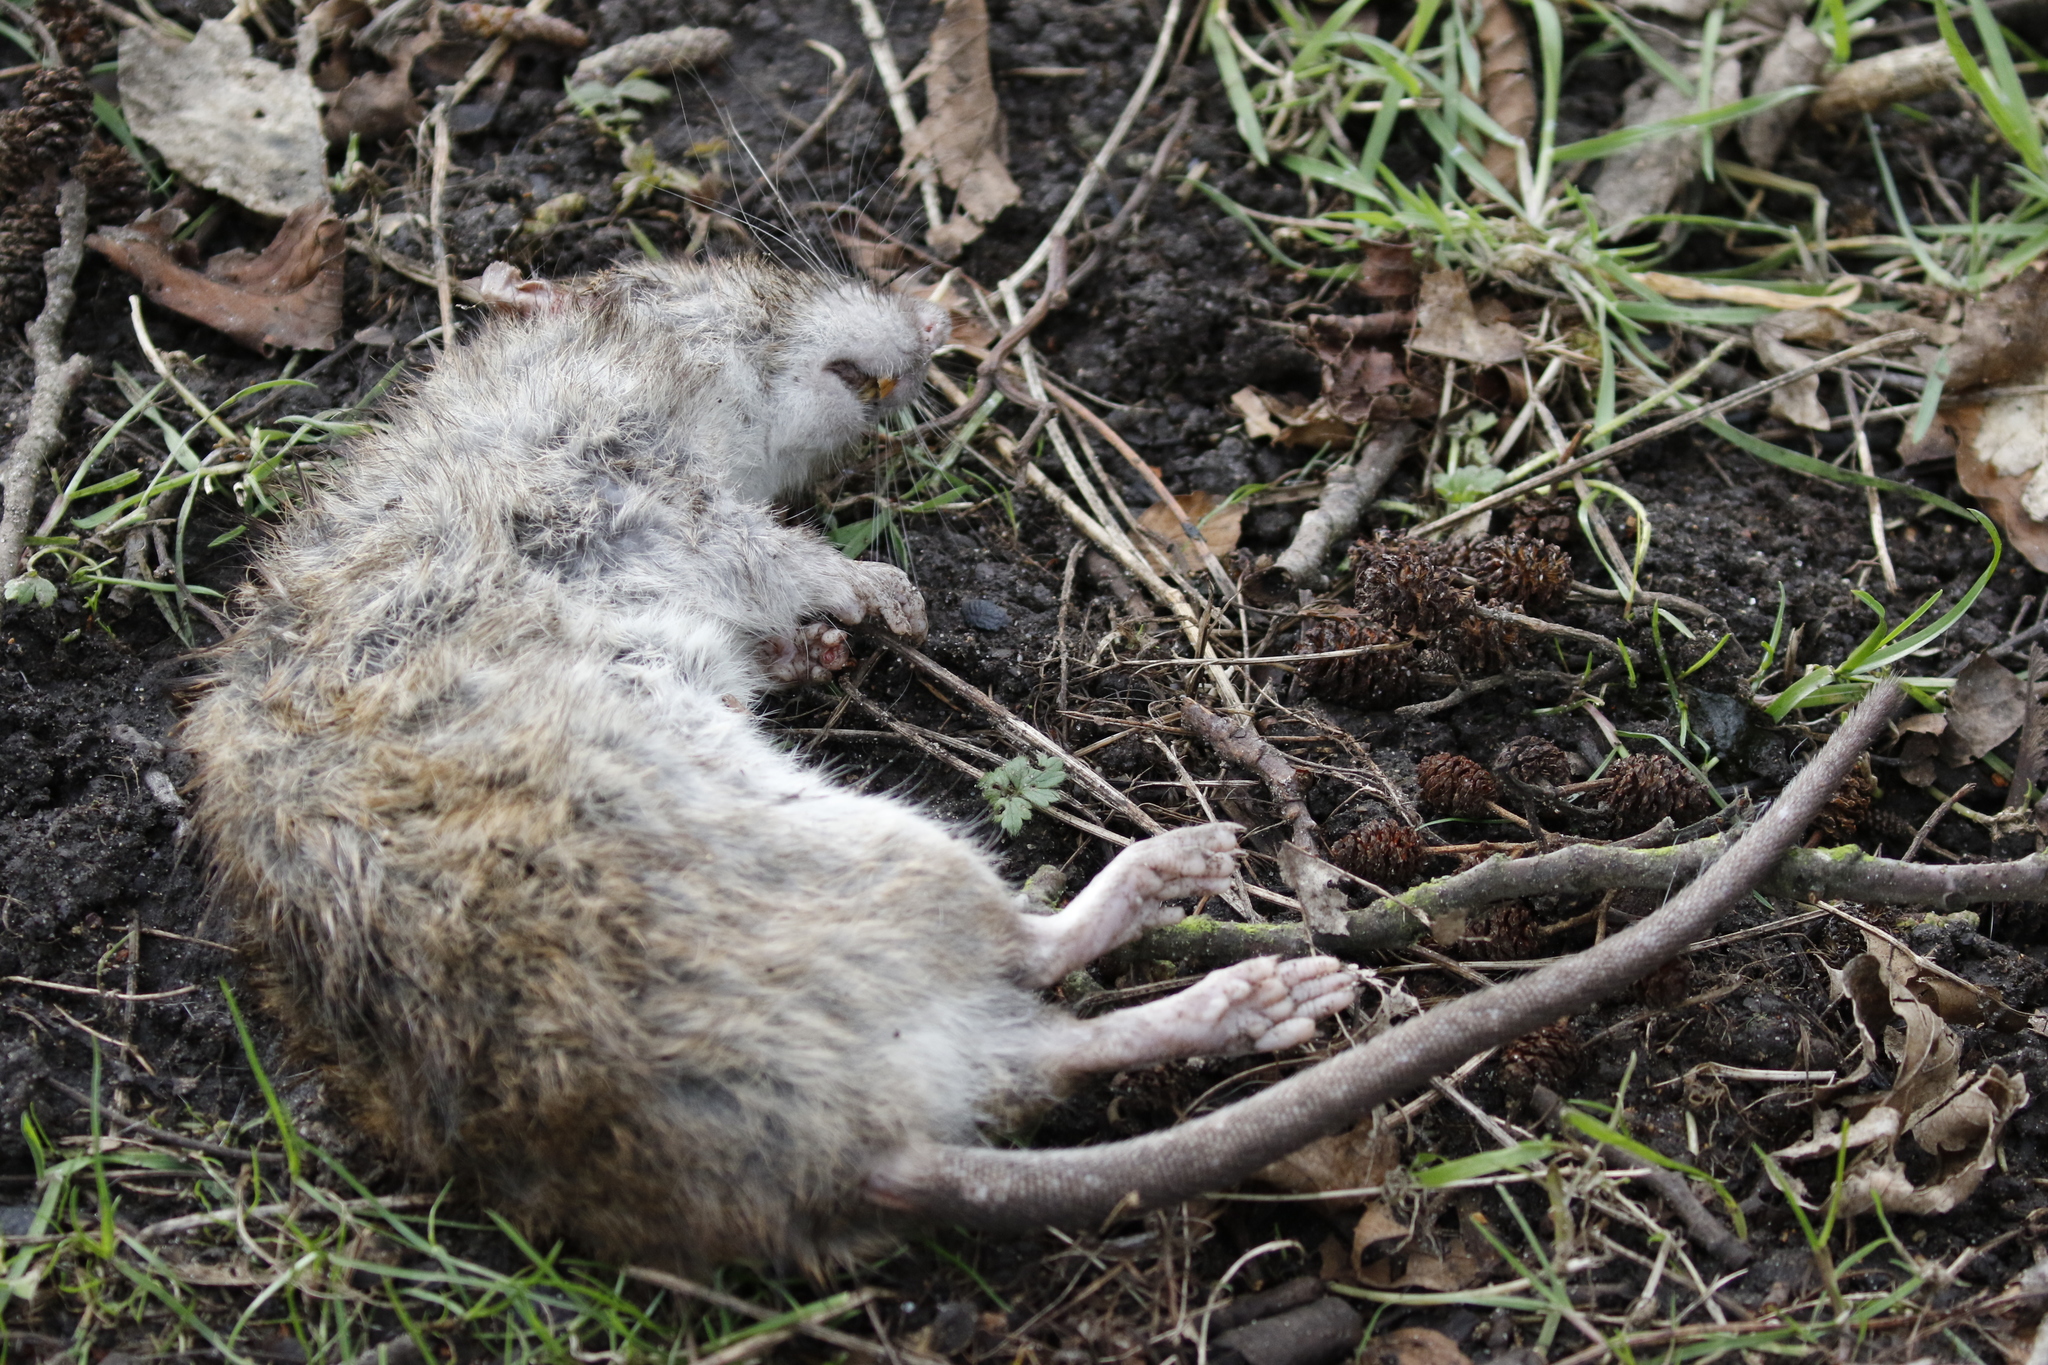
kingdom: Animalia
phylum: Chordata
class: Mammalia
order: Rodentia
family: Muridae
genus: Rattus
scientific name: Rattus norvegicus
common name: Brown rat
